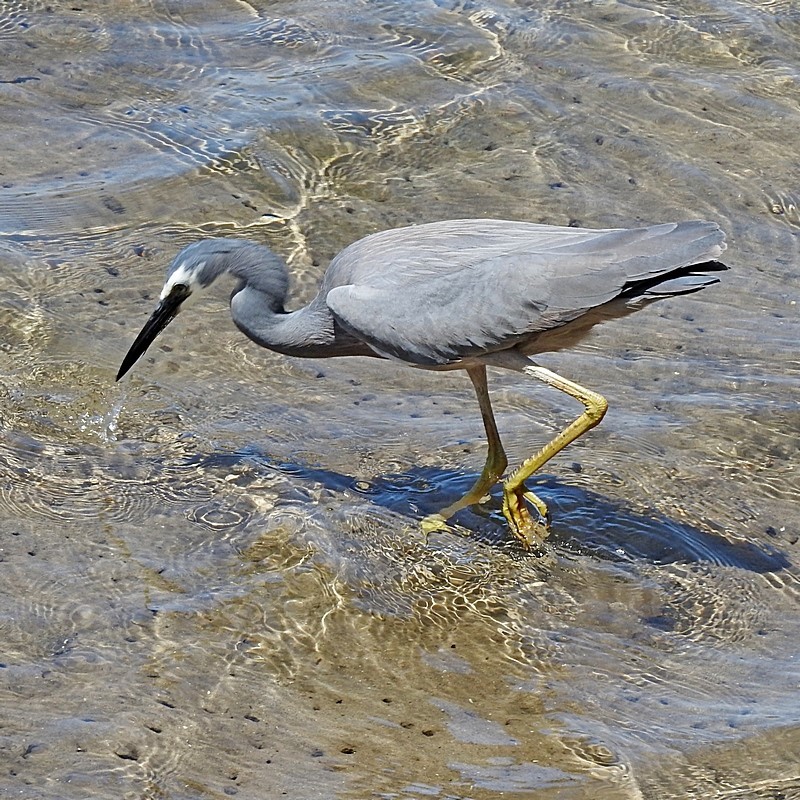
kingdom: Animalia
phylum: Chordata
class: Aves
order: Pelecaniformes
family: Ardeidae
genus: Egretta
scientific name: Egretta novaehollandiae
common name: White-faced heron
